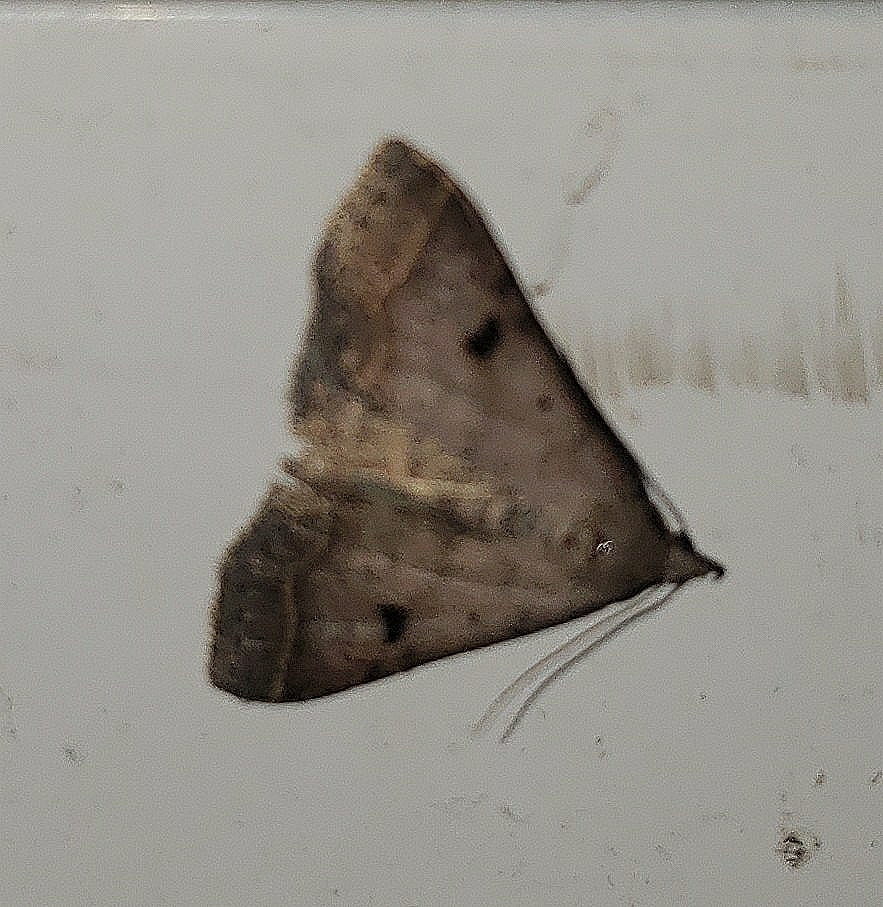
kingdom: Animalia
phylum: Arthropoda
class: Insecta
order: Lepidoptera
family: Erebidae
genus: Bleptina
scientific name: Bleptina caradrinalis
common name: Bent-winged owlet
